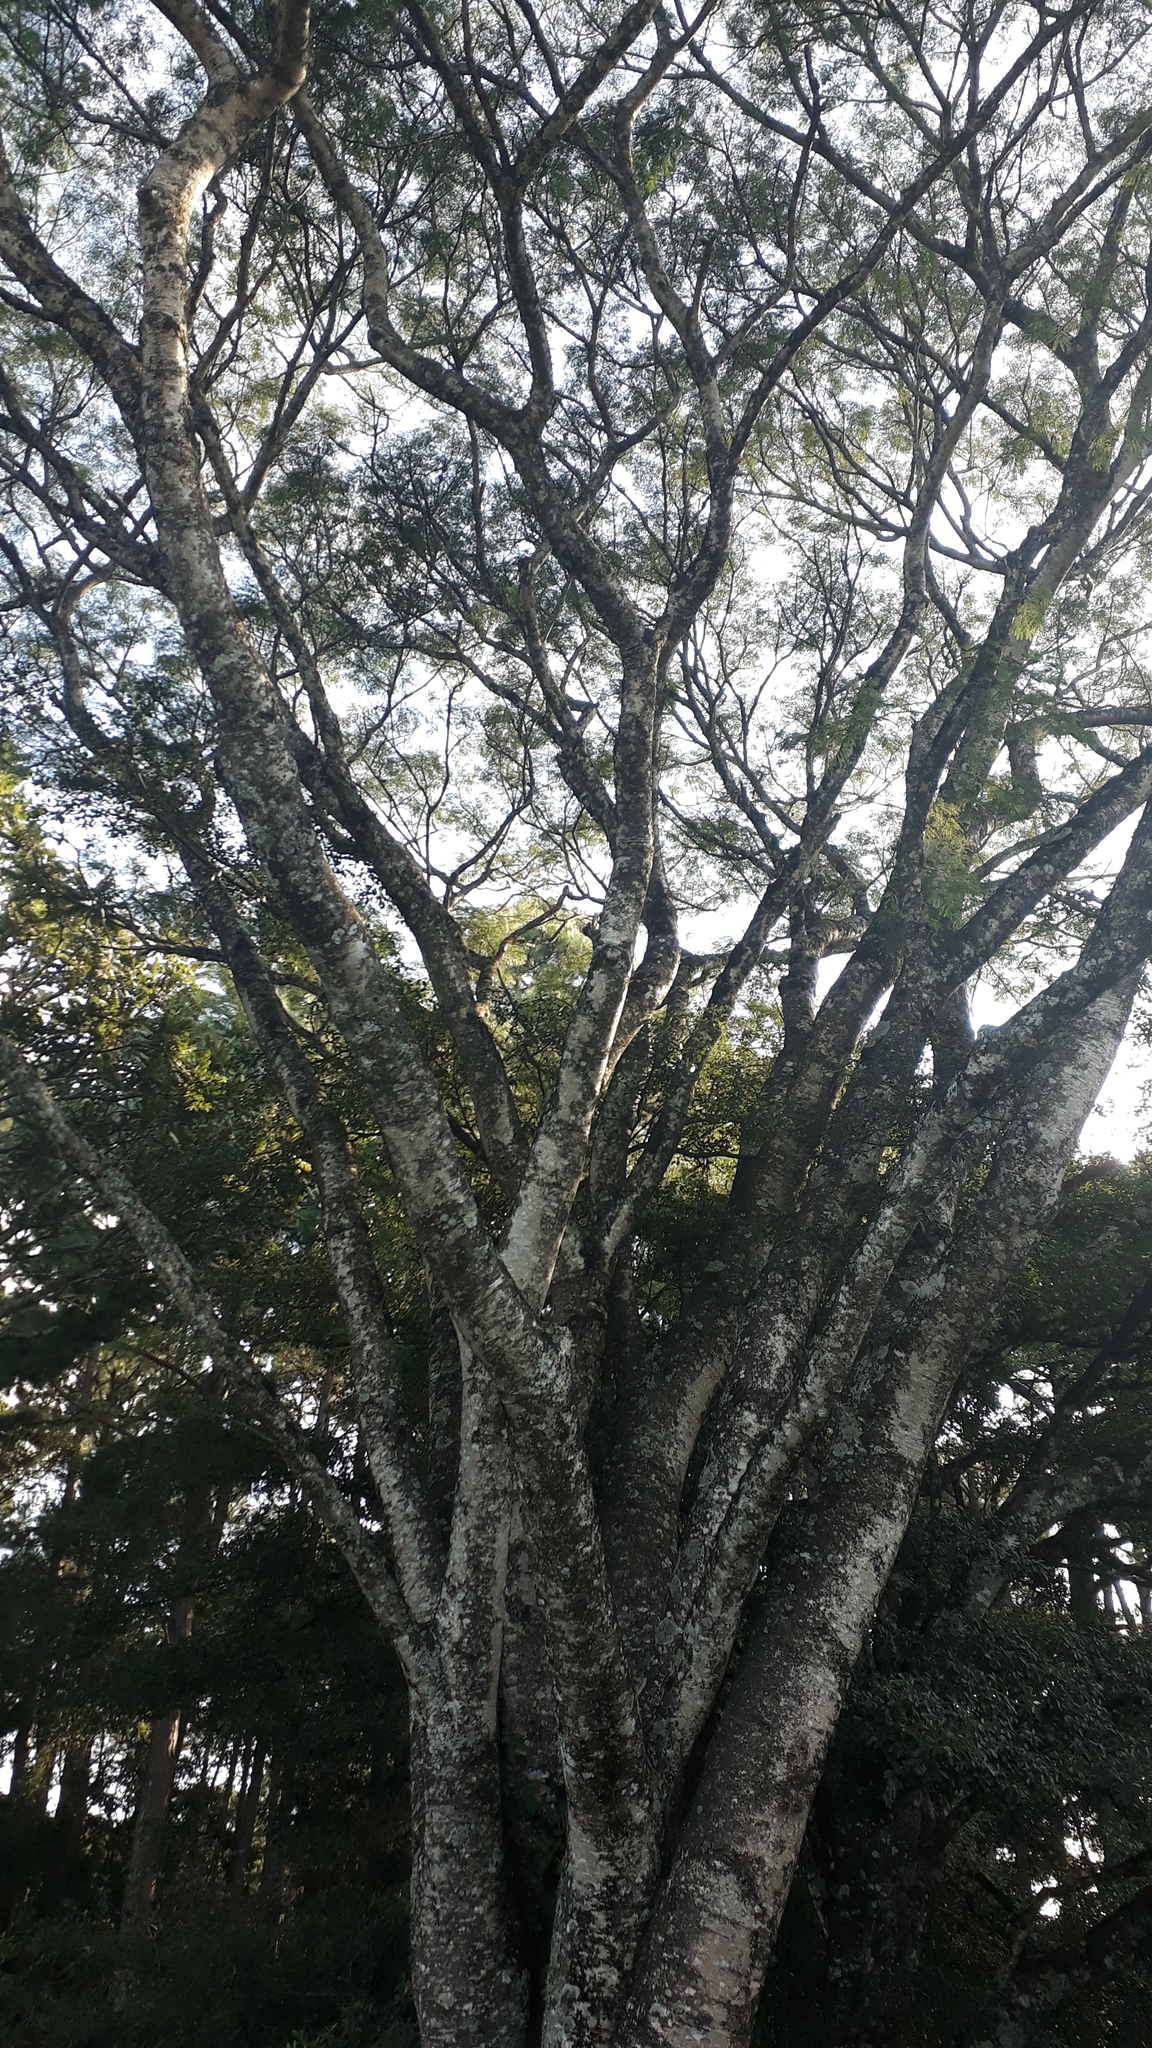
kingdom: Plantae
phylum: Tracheophyta
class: Magnoliopsida
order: Fabales
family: Fabaceae
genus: Enterolobium
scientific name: Enterolobium contortisiliquum
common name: Pacara earpod tree
